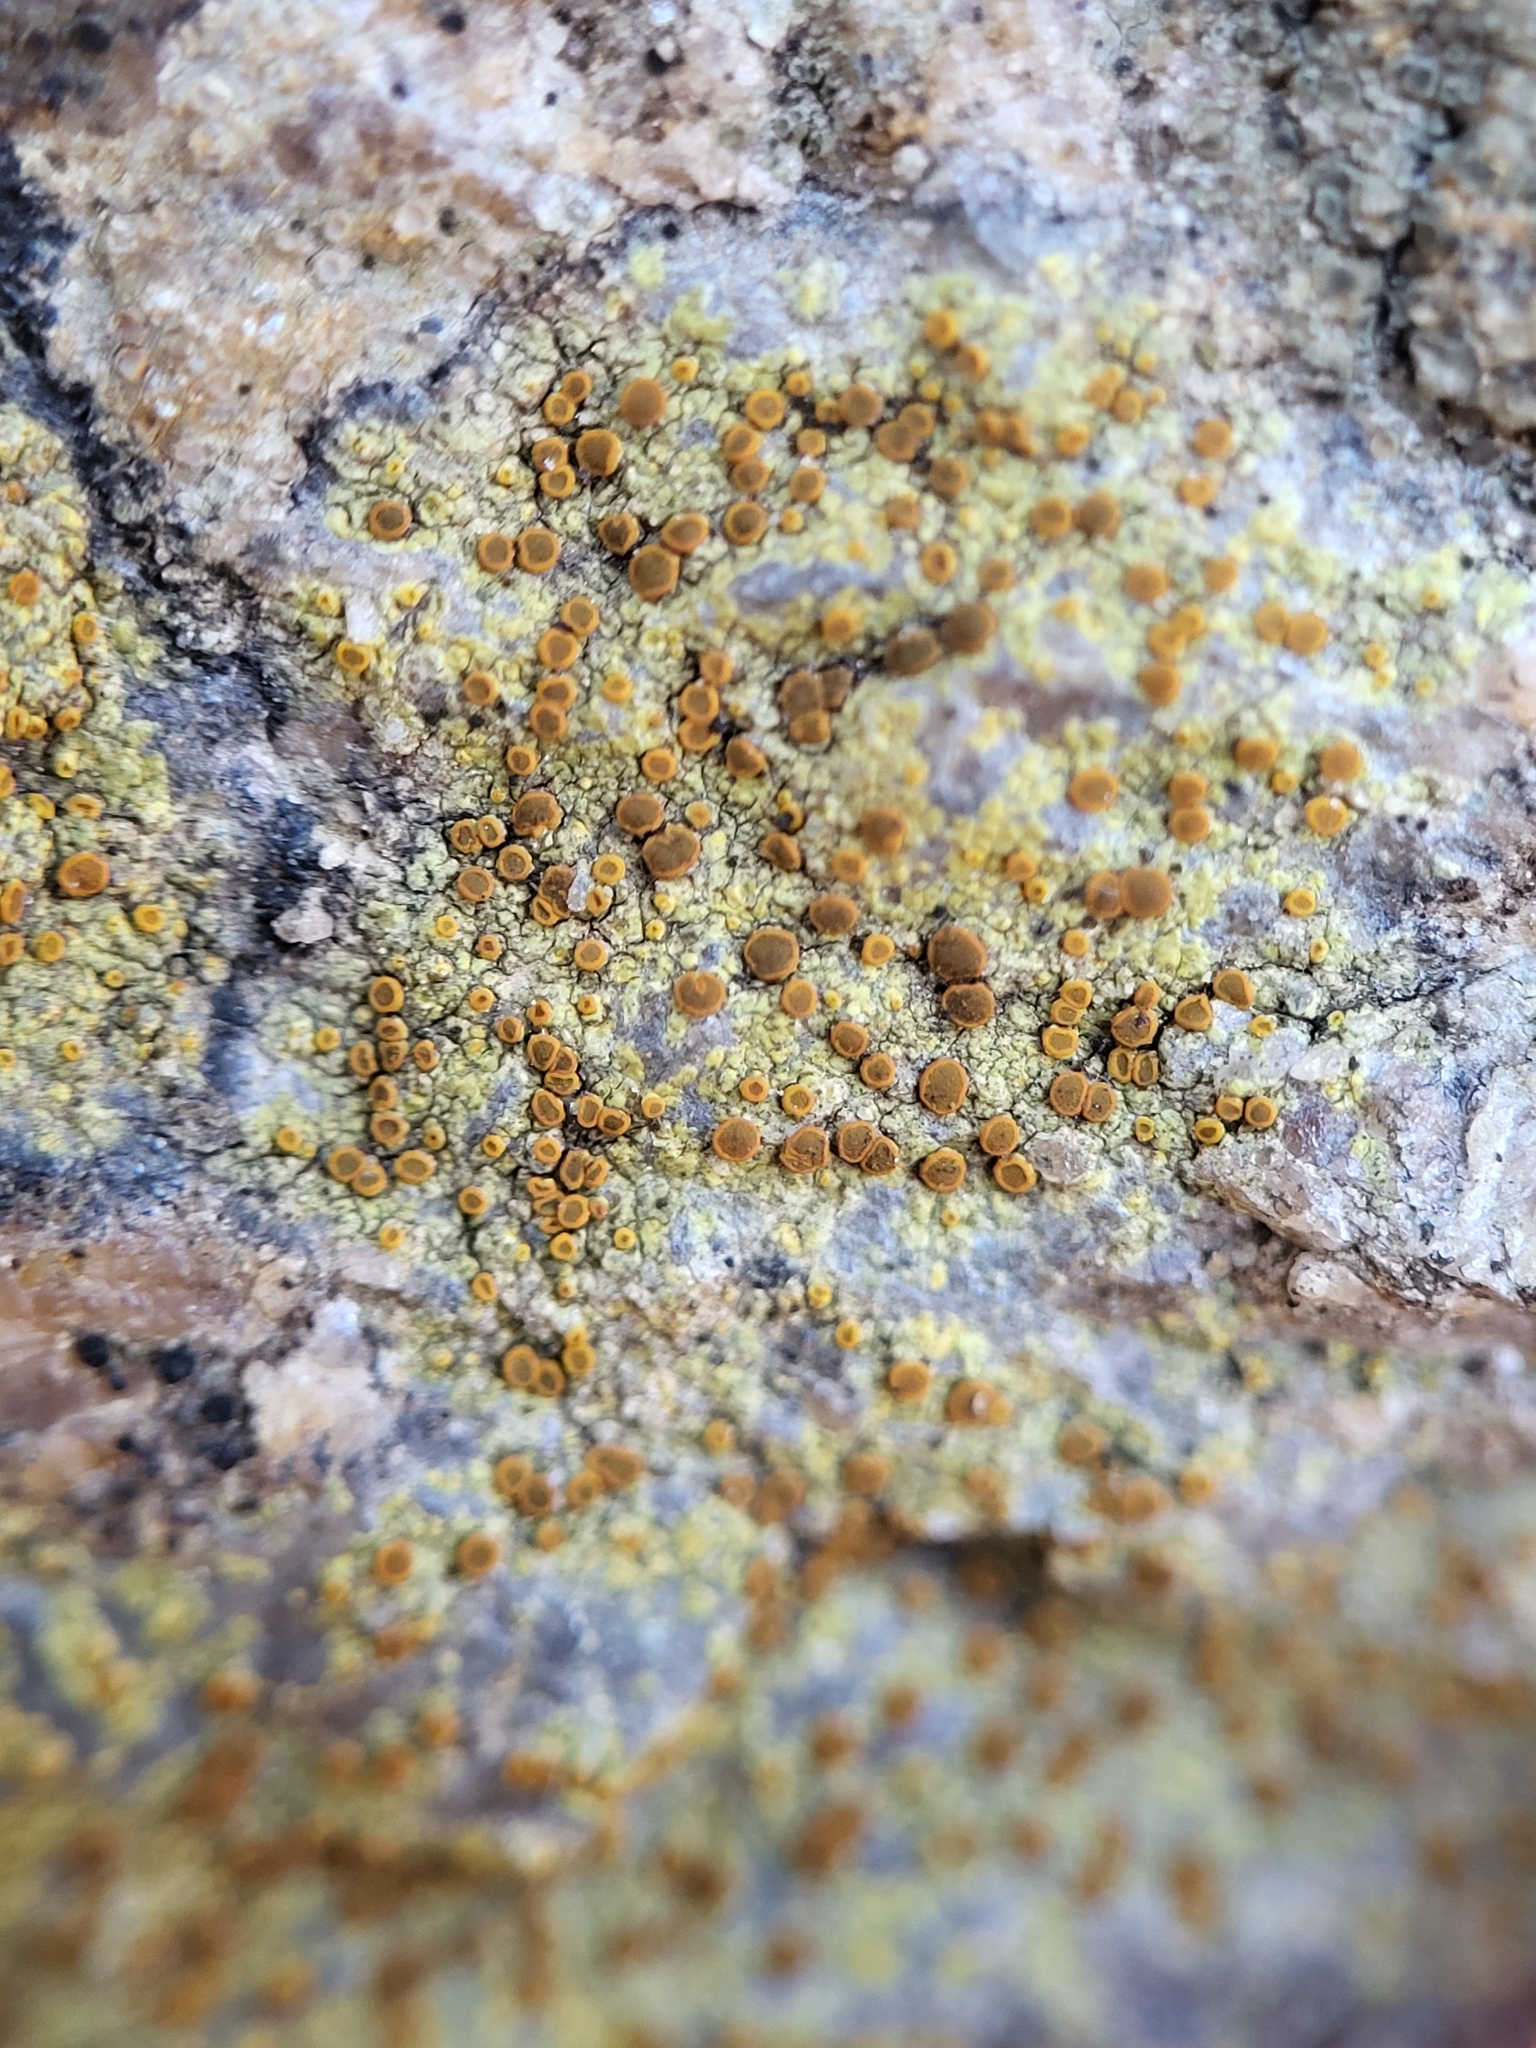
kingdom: Fungi
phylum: Ascomycota
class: Lecanoromycetes
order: Teloschistales
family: Teloschistaceae
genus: Gyalolechia
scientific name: Gyalolechia flavovirescens
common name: Sulphur firedot
